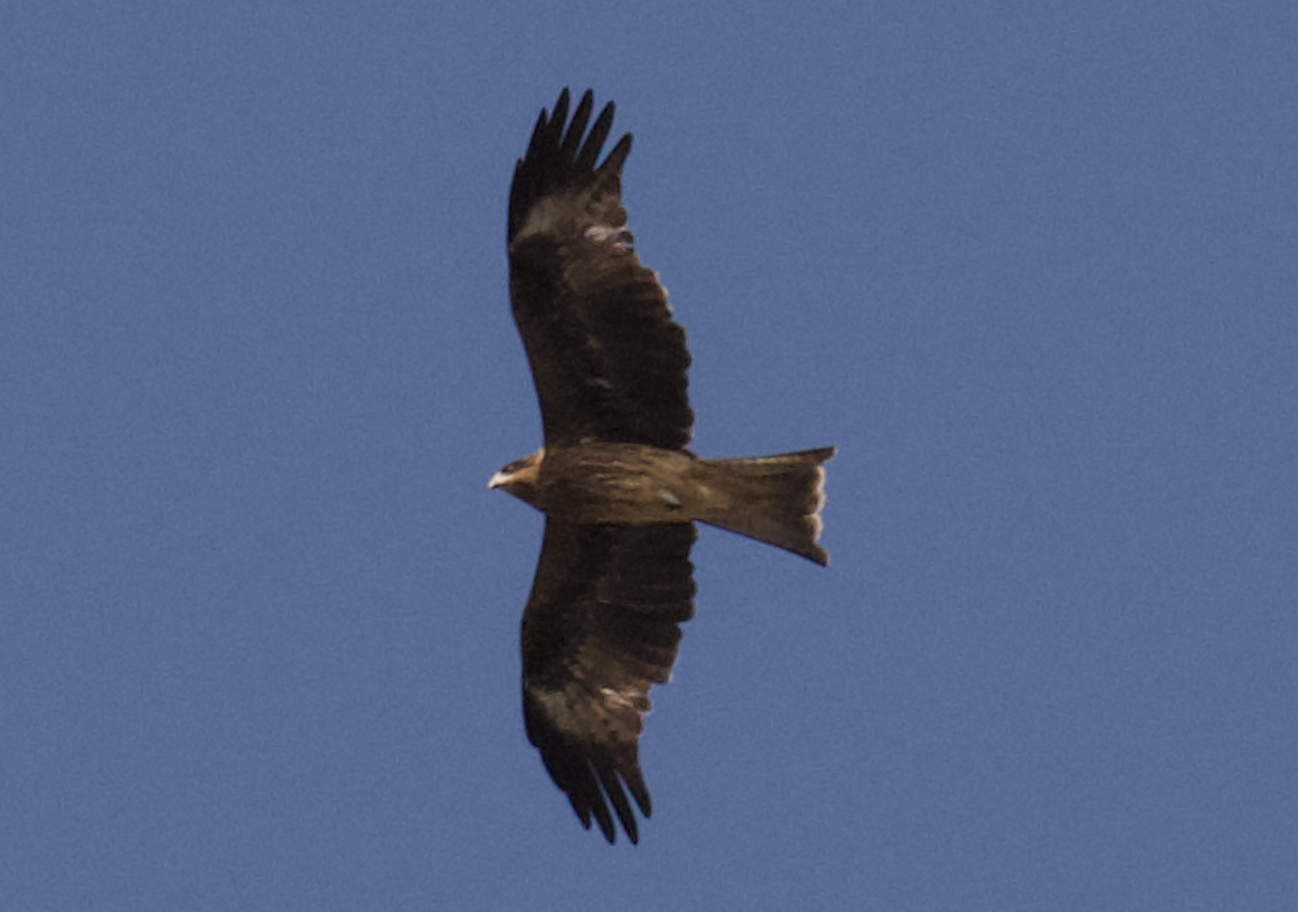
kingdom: Animalia
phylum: Chordata
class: Aves
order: Accipitriformes
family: Accipitridae
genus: Milvus
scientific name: Milvus migrans
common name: Black kite
